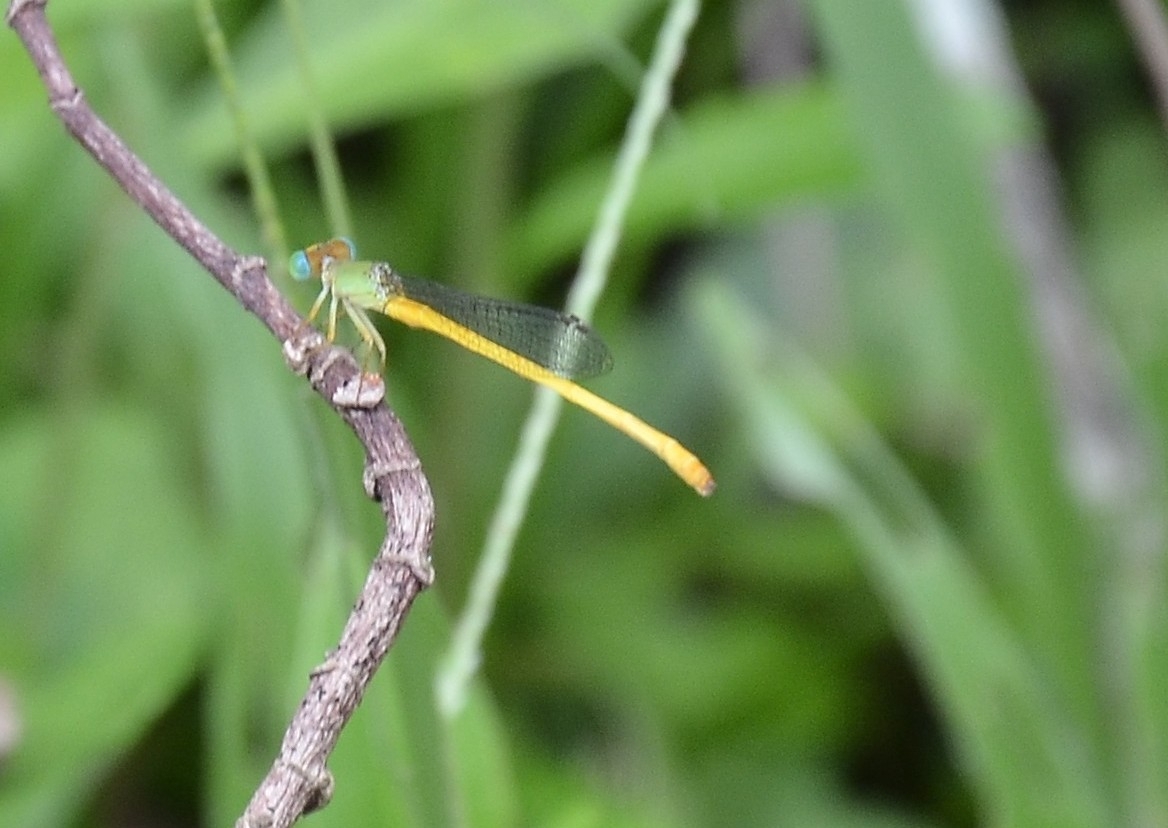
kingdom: Animalia
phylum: Arthropoda
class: Insecta
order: Odonata
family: Coenagrionidae
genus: Ceriagrion
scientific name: Ceriagrion coromandelianum
